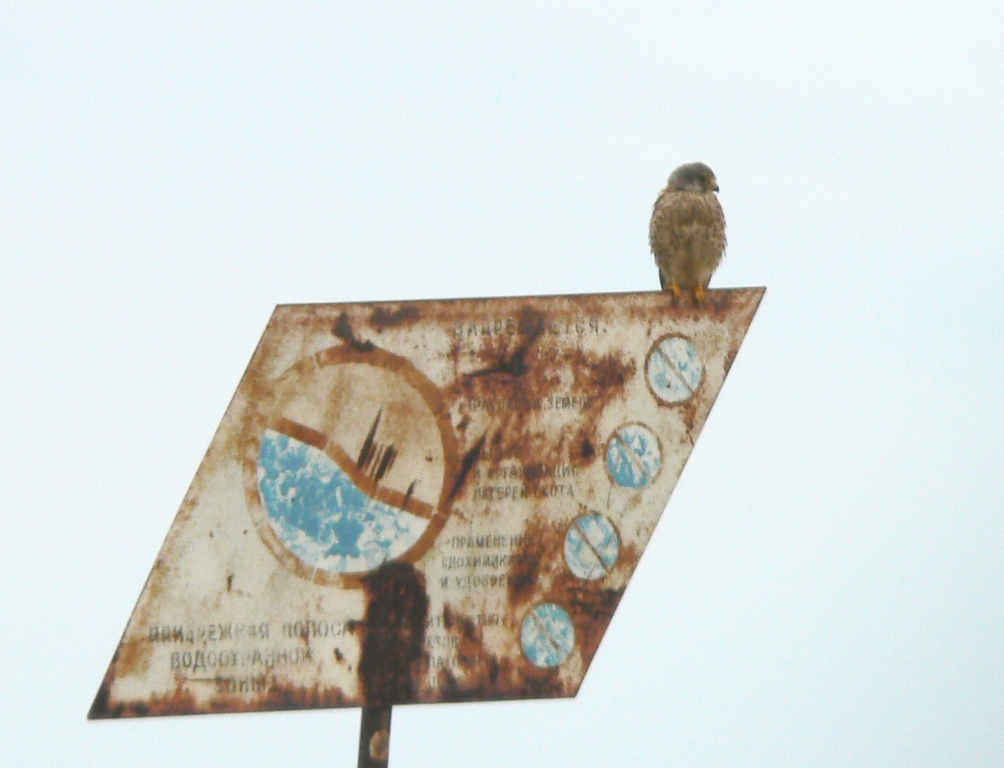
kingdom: Animalia
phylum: Chordata
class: Aves
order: Falconiformes
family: Falconidae
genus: Falco
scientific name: Falco tinnunculus
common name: Common kestrel
